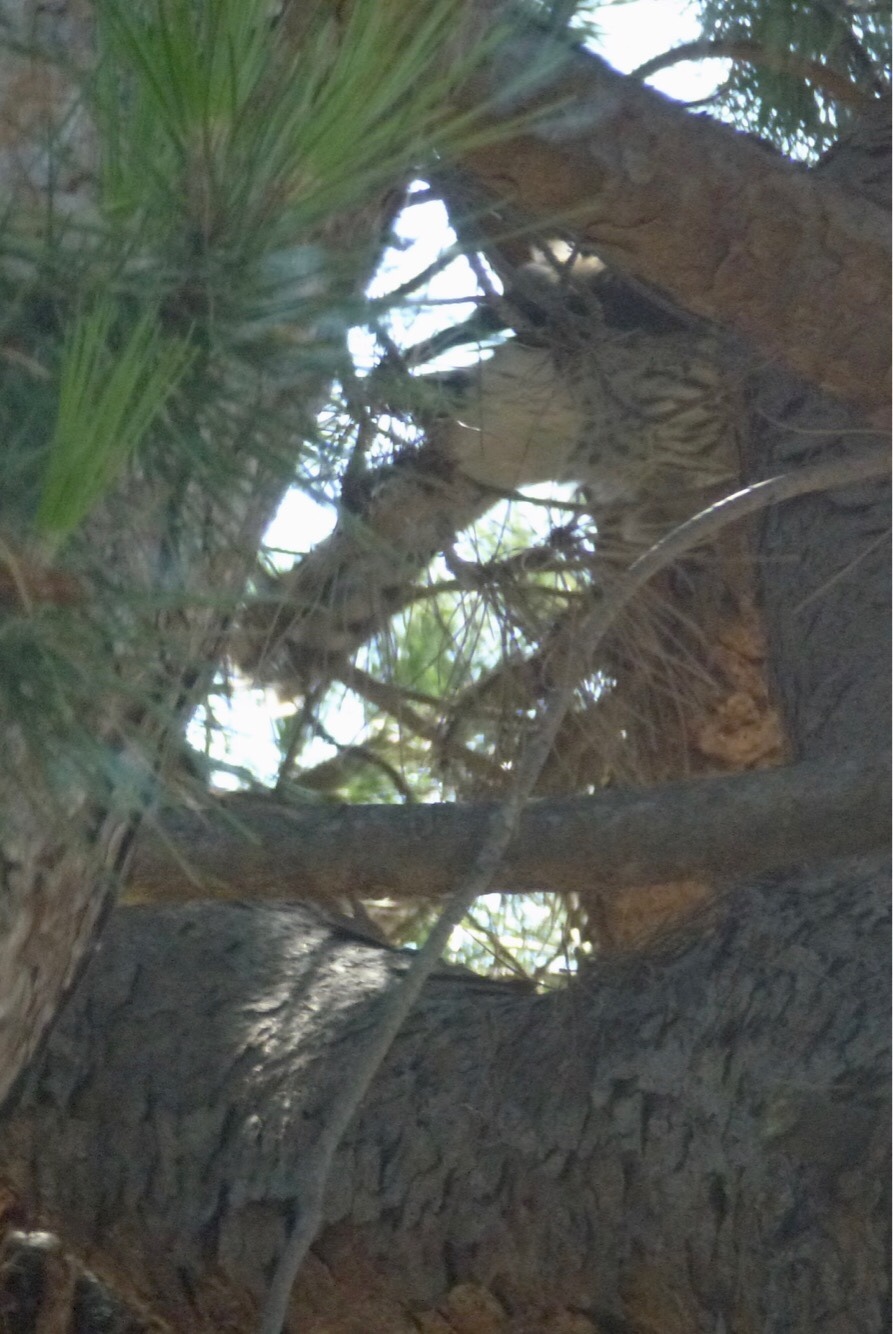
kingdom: Animalia
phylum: Chordata
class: Aves
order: Accipitriformes
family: Accipitridae
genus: Accipiter
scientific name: Accipiter cooperii
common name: Cooper's hawk
